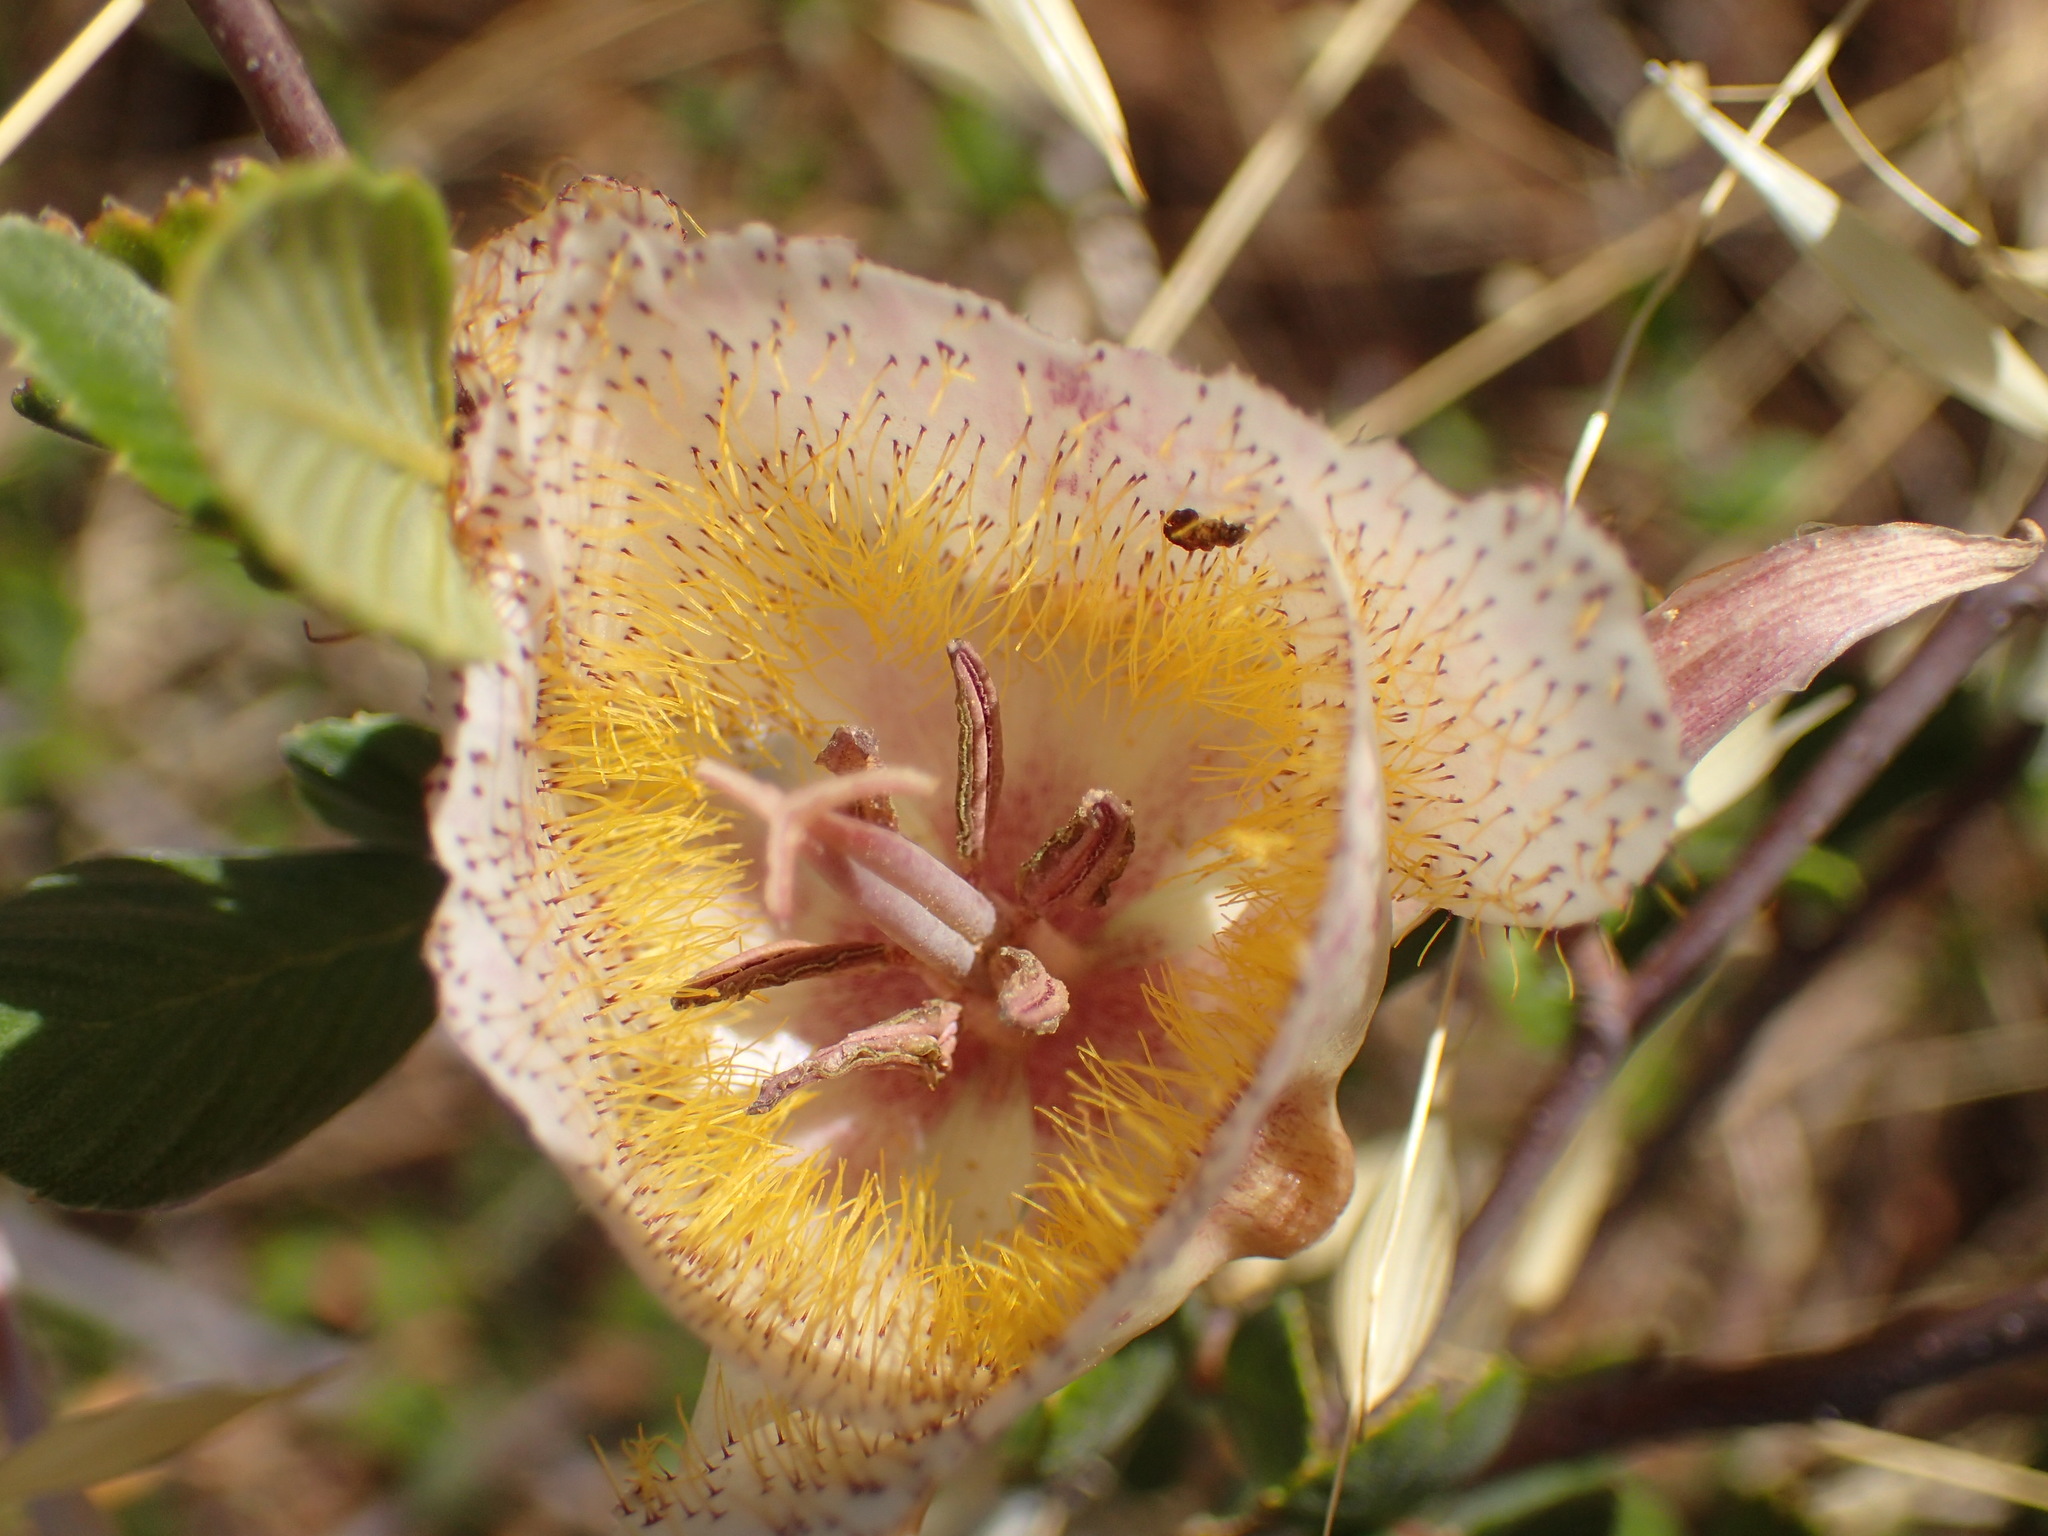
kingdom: Plantae
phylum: Tracheophyta
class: Liliopsida
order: Liliales
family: Liliaceae
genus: Calochortus
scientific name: Calochortus fimbriatus
